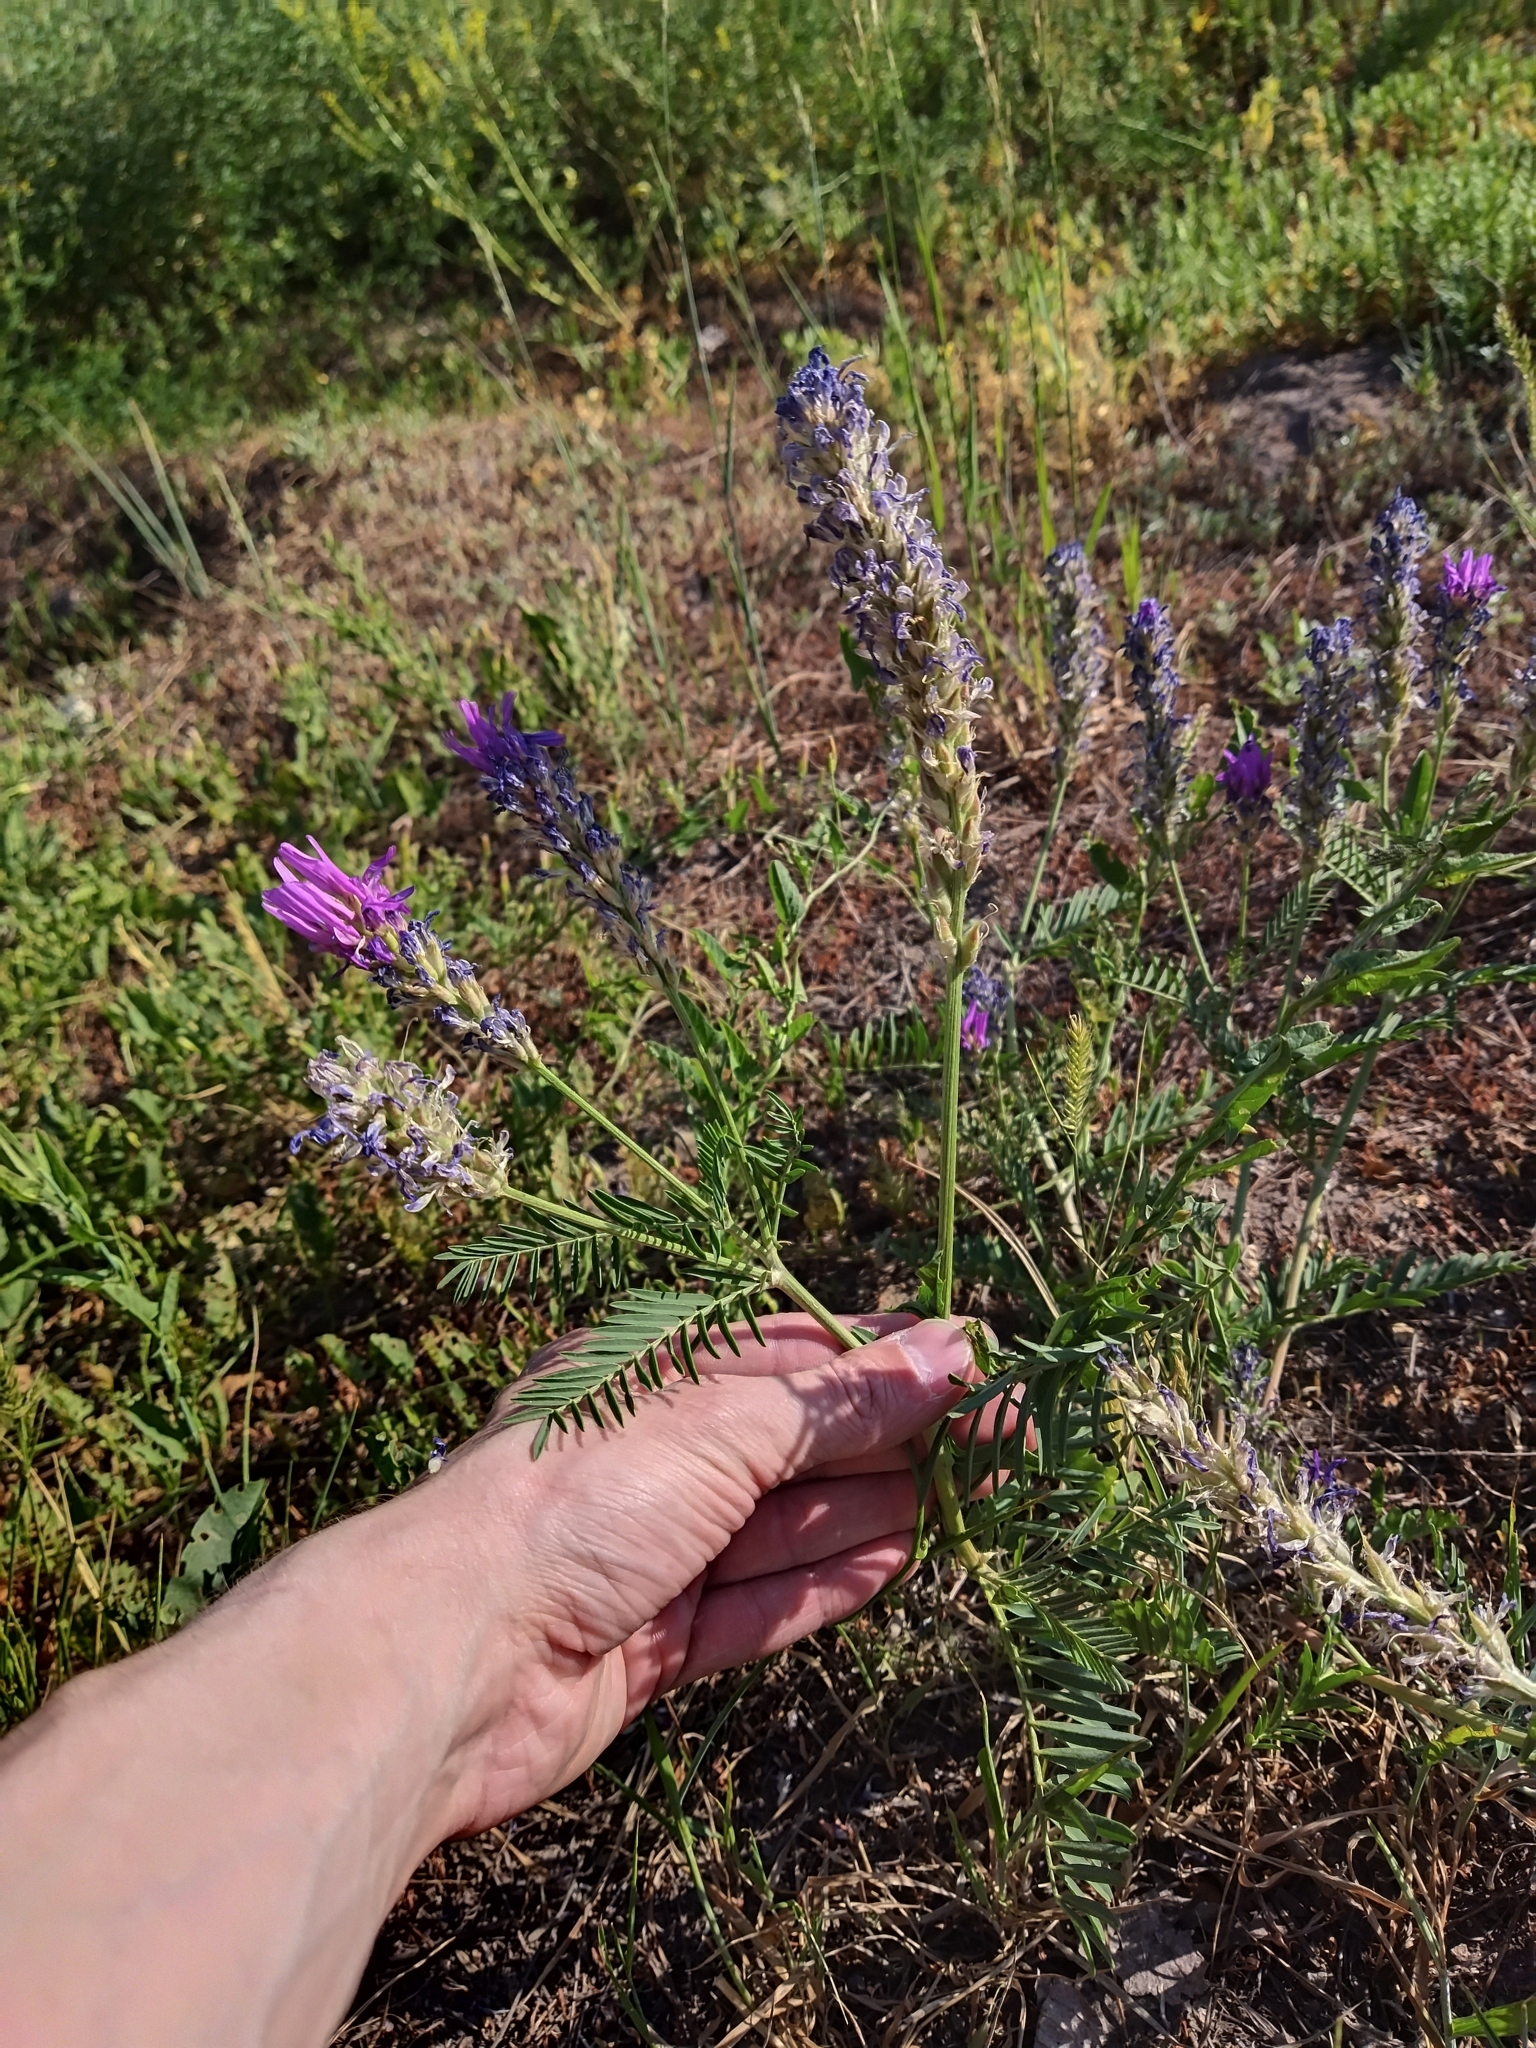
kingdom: Plantae
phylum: Tracheophyta
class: Magnoliopsida
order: Fabales
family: Fabaceae
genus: Astragalus
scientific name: Astragalus onobrychis
